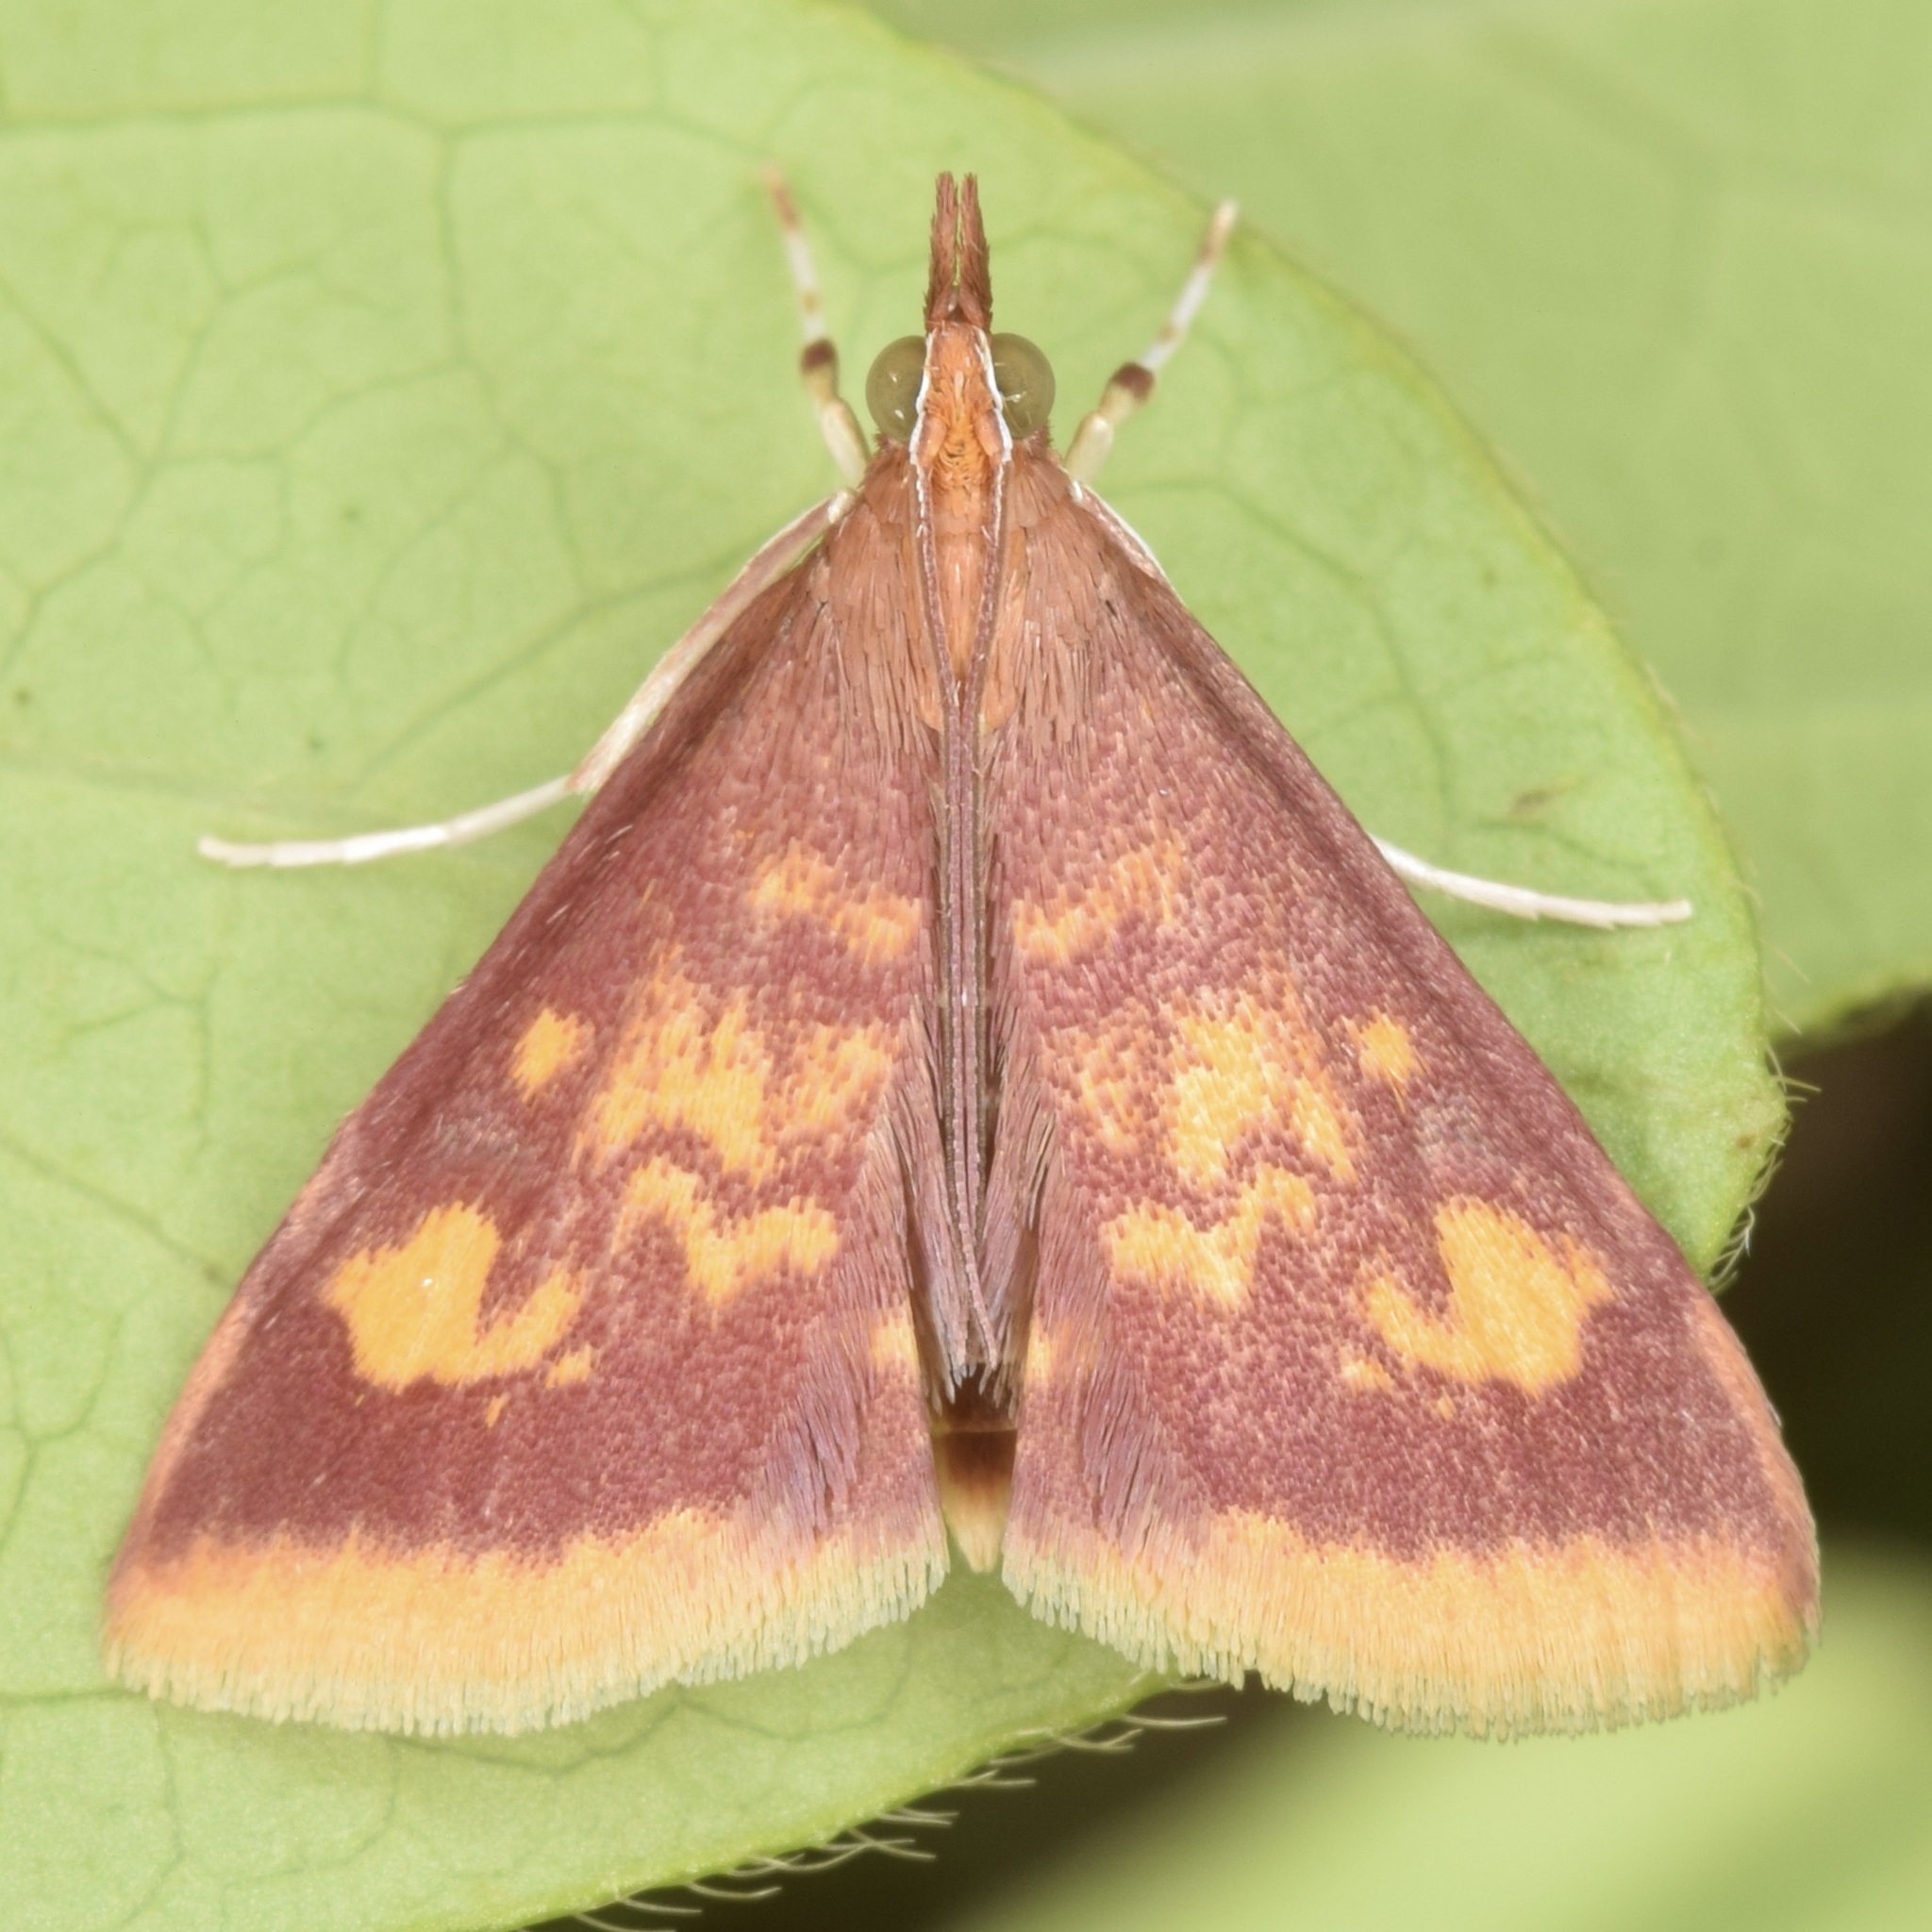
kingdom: Animalia
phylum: Arthropoda
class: Insecta
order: Lepidoptera
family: Crambidae
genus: Pyrausta
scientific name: Pyrausta acrionalis
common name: Mint-loving pyrausta moth
